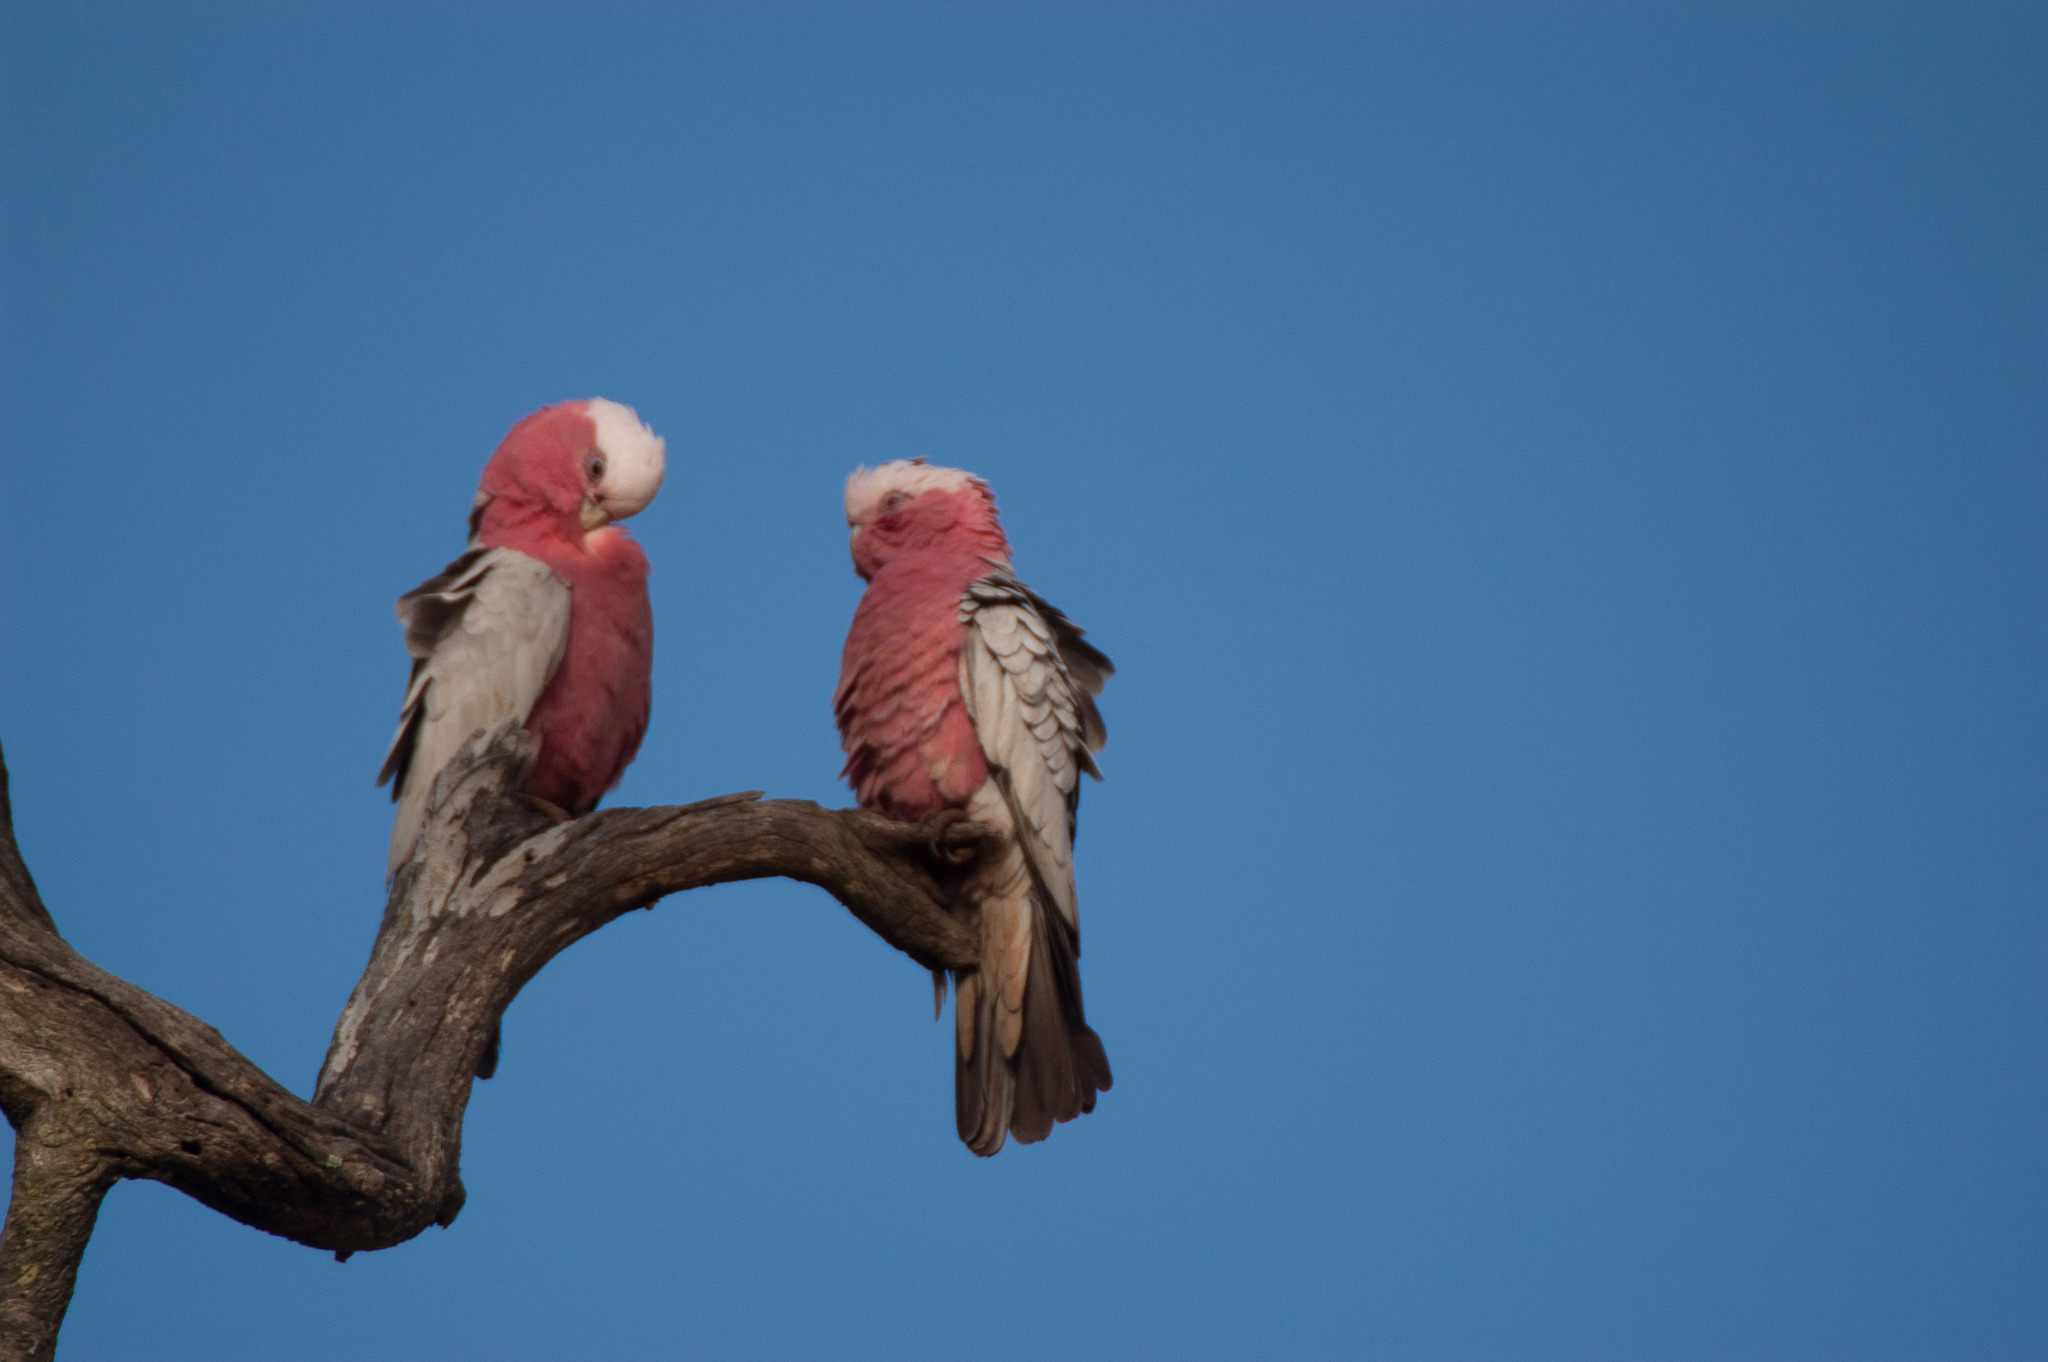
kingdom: Animalia
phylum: Chordata
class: Aves
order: Psittaciformes
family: Psittacidae
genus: Eolophus
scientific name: Eolophus roseicapilla
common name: Galah
